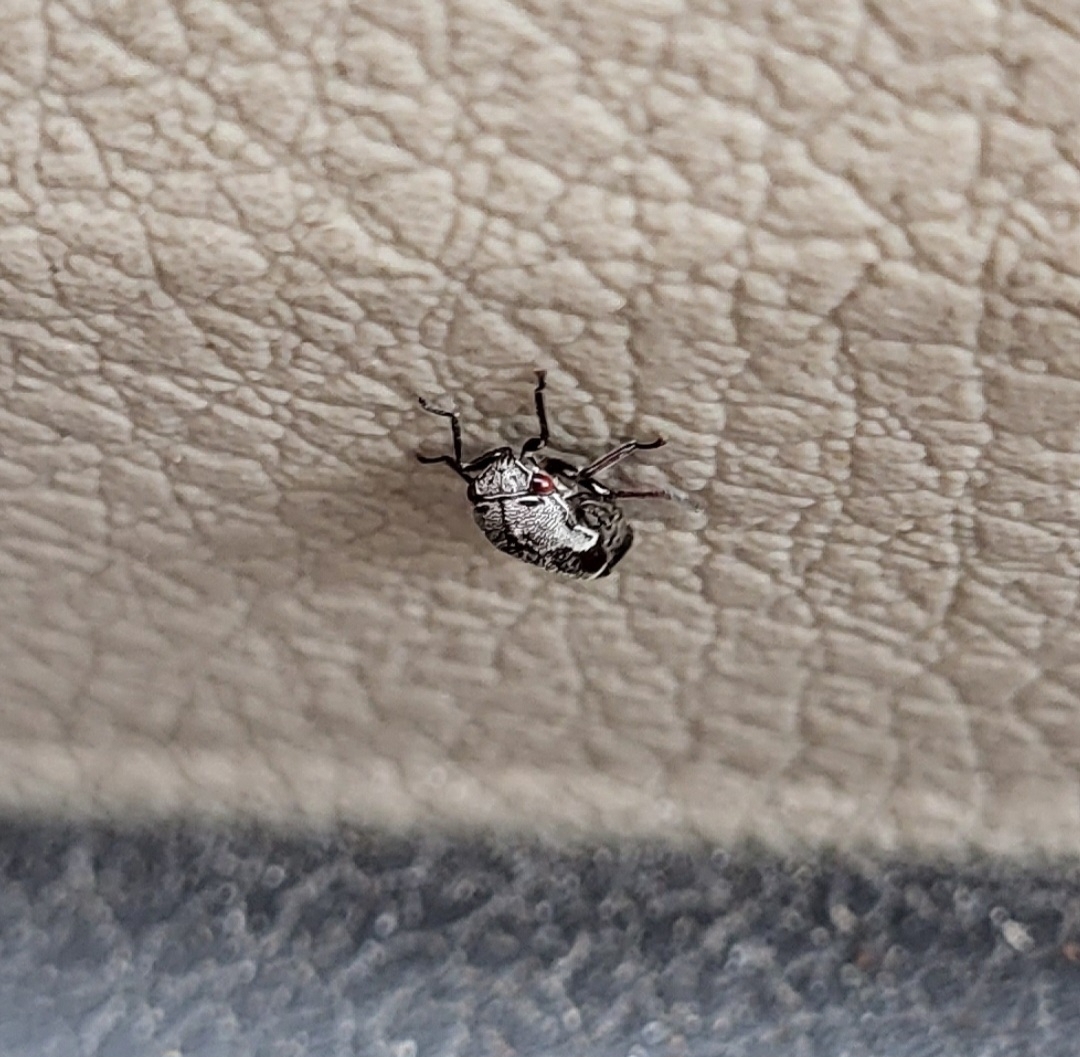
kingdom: Animalia
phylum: Arthropoda
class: Insecta
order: Hemiptera
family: Membracidae
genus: Xantholobus
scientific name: Xantholobus nigrocincta
